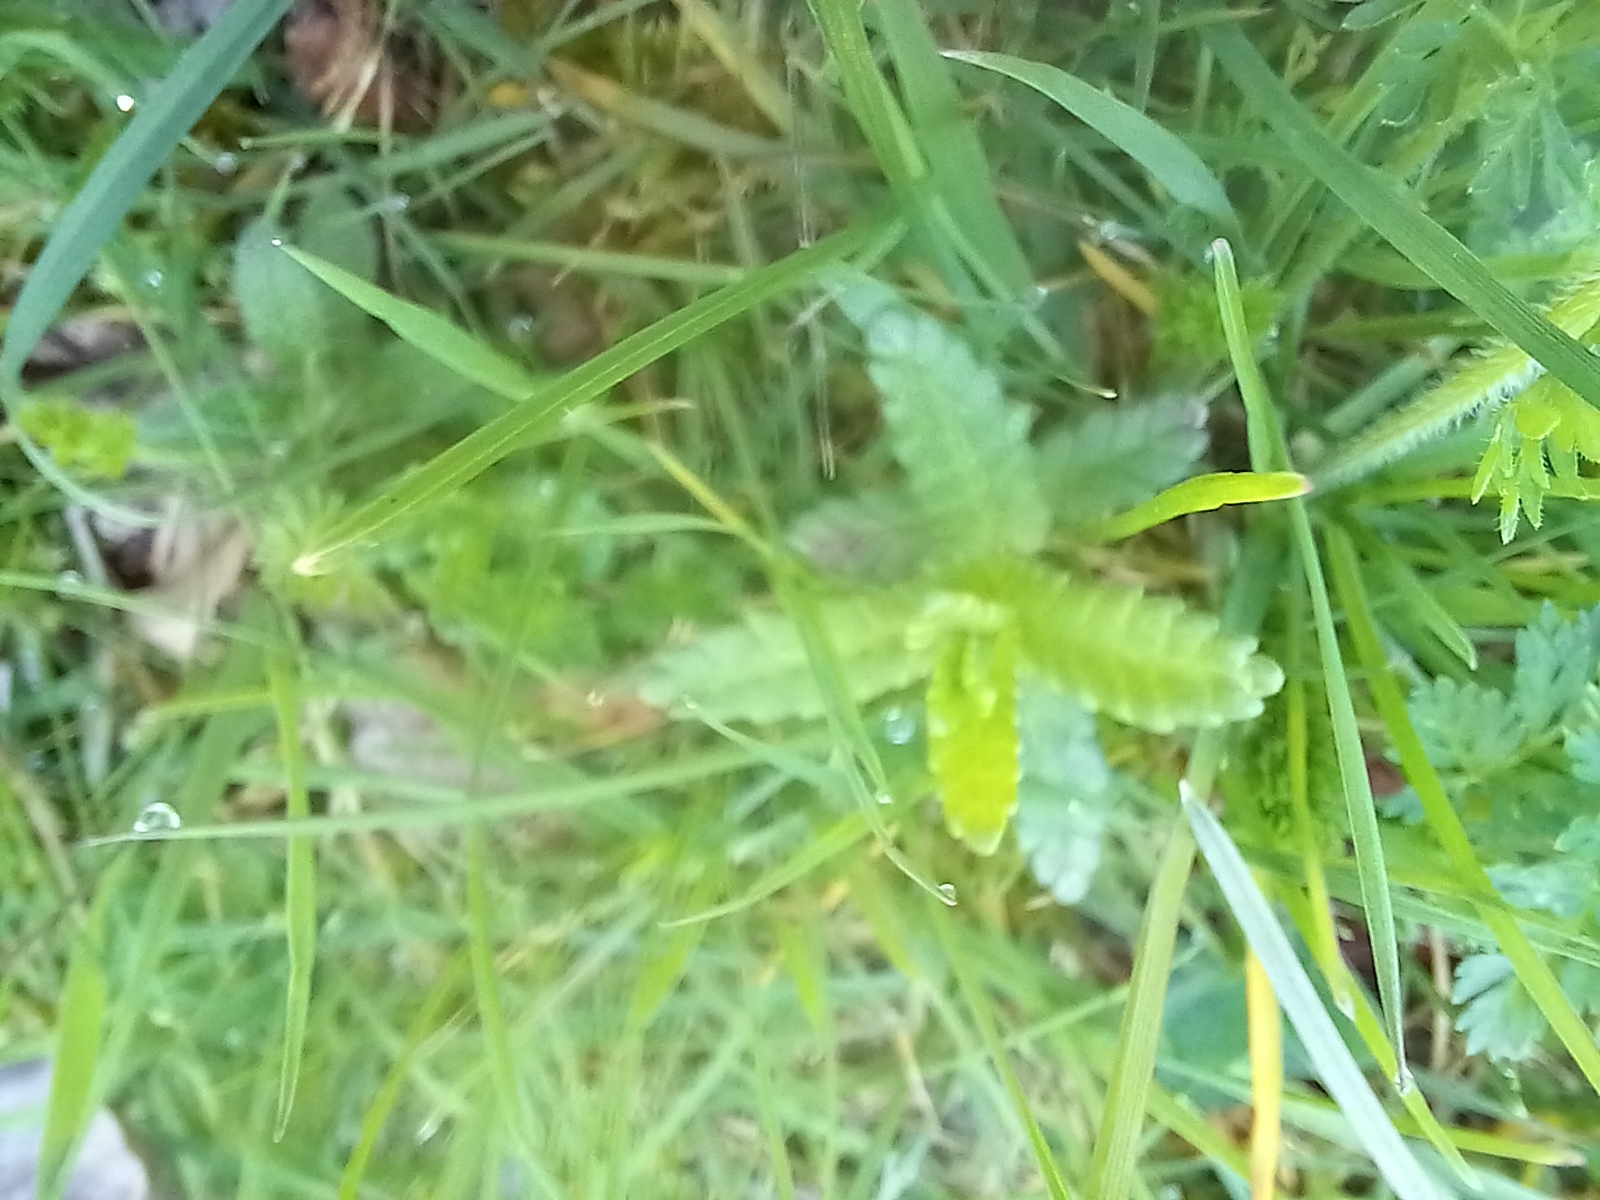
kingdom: Plantae
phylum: Tracheophyta
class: Magnoliopsida
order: Lamiales
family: Orobanchaceae
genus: Rhinanthus
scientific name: Rhinanthus minor
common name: Yellow-rattle
